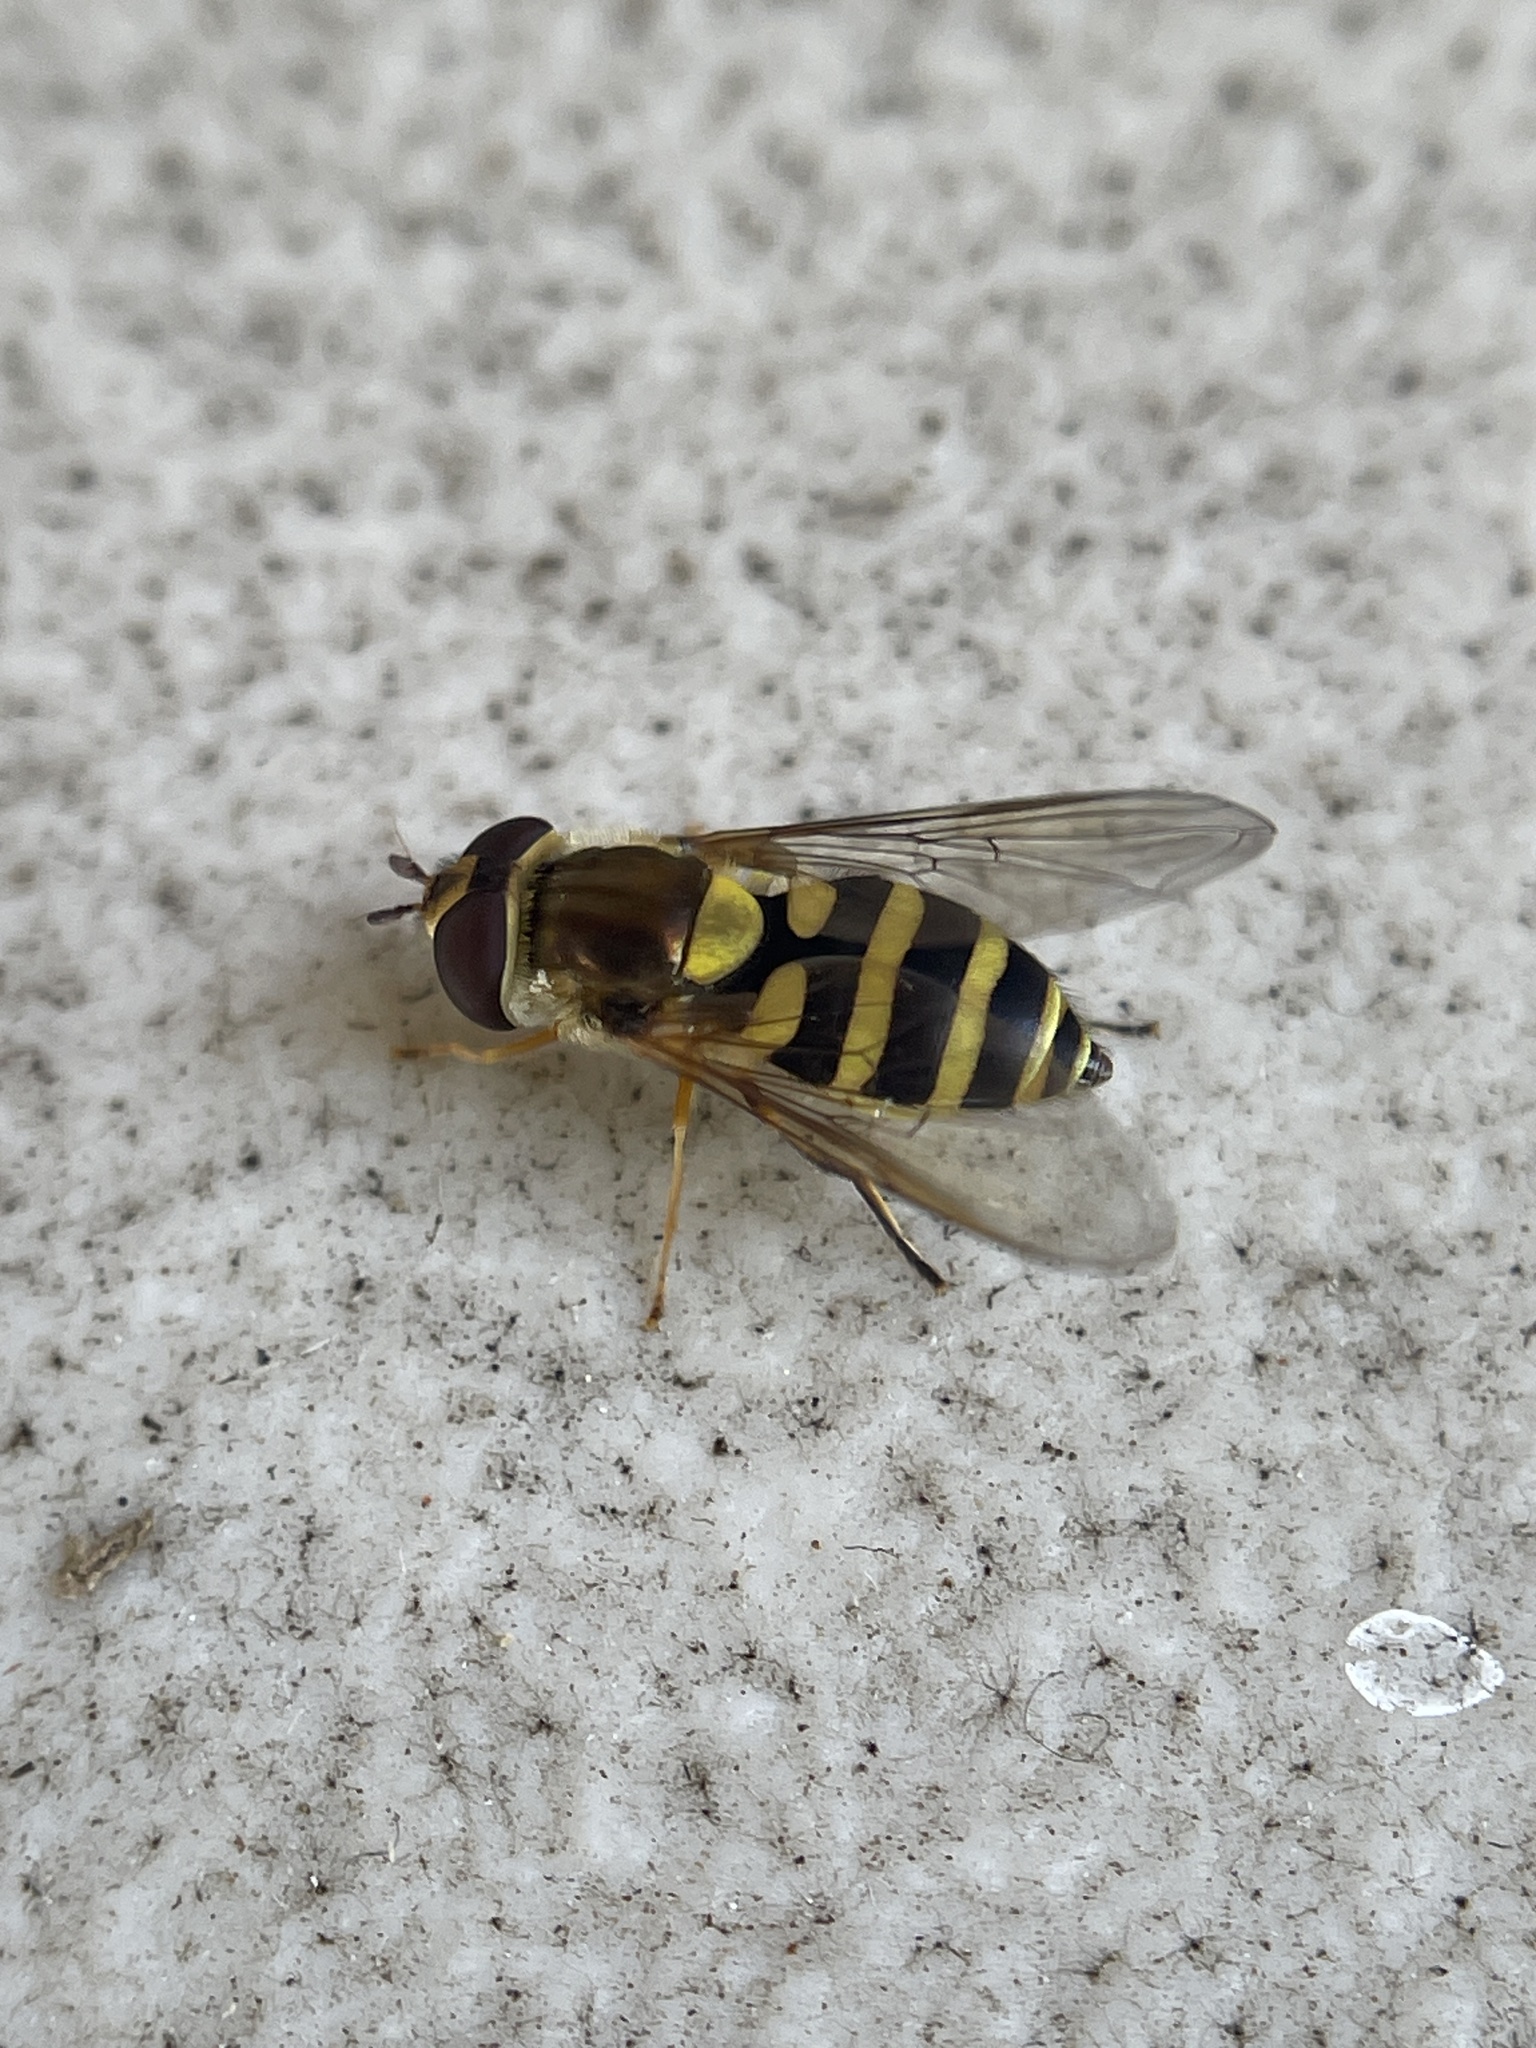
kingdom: Animalia
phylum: Arthropoda
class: Insecta
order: Diptera
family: Syrphidae
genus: Syrphus
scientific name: Syrphus rectus
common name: Yellow-legged flower fly
